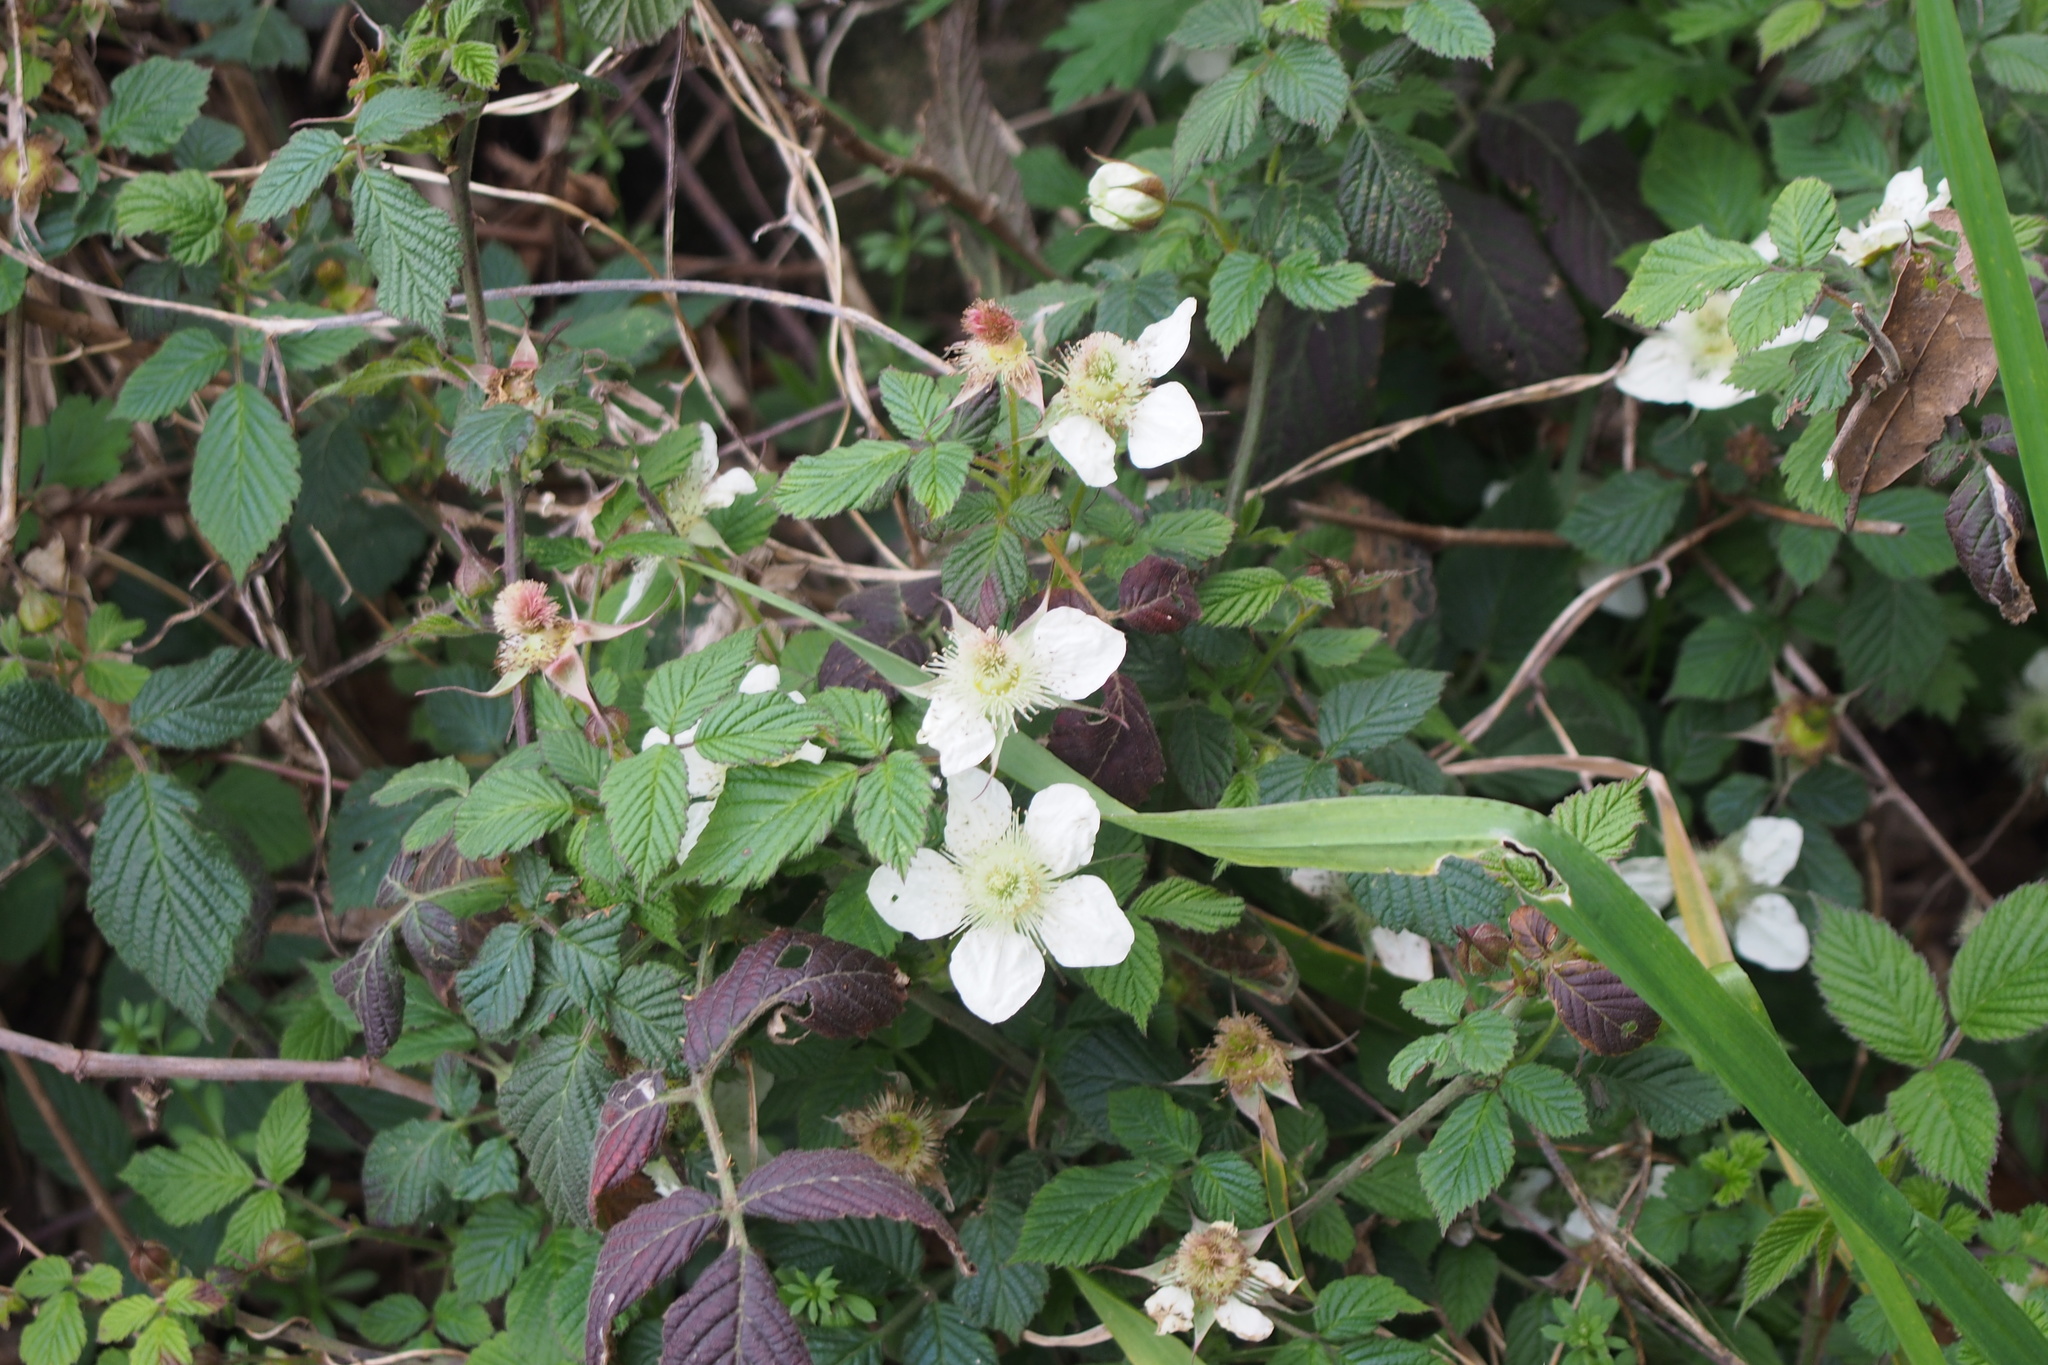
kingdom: Plantae
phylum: Tracheophyta
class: Magnoliopsida
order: Rosales
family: Rosaceae
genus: Rubus
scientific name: Rubus hirsutus
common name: Hirsute raspberry
